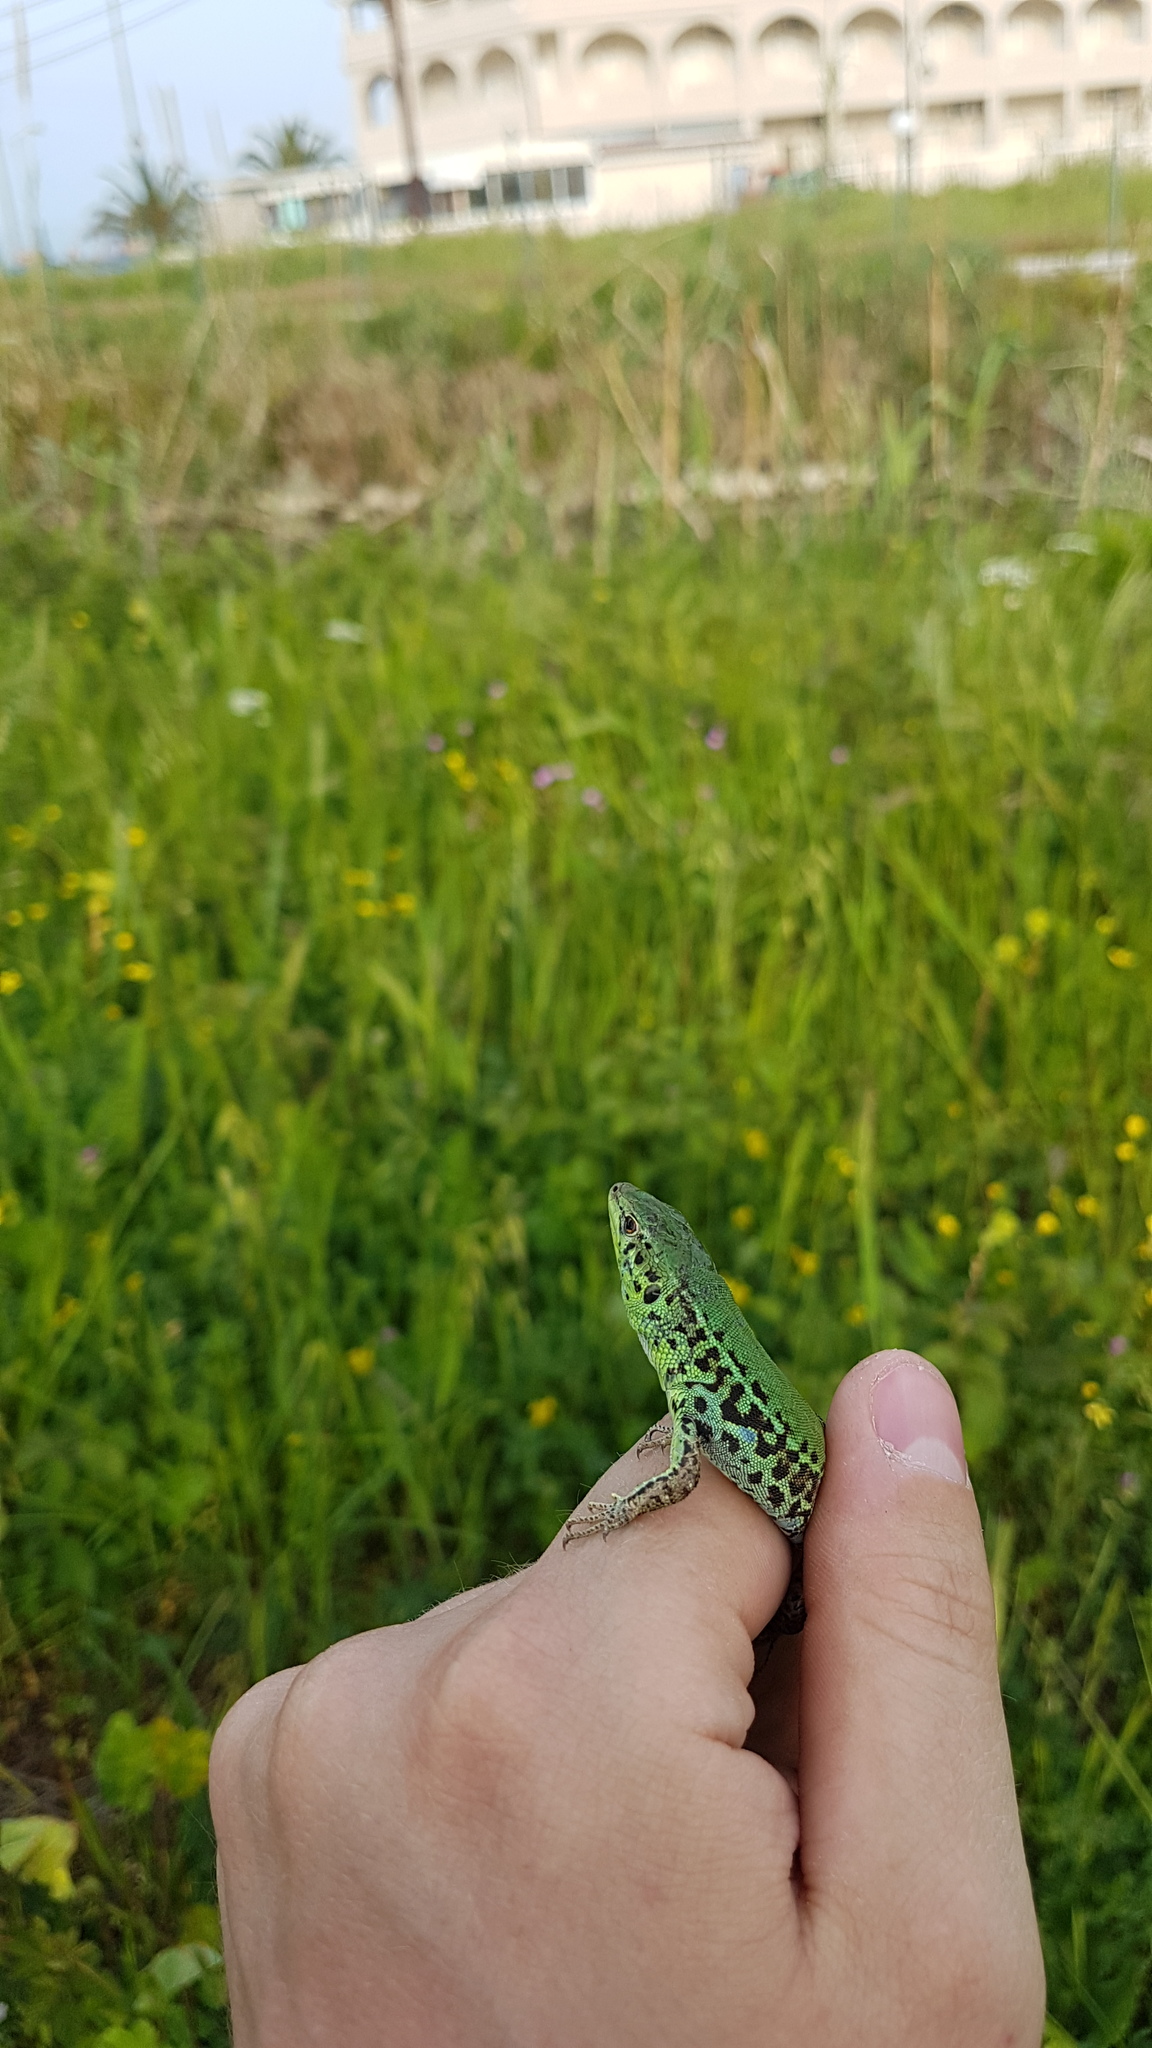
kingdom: Animalia
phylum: Chordata
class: Squamata
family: Lacertidae
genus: Podarcis
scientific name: Podarcis ionicus
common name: Ionian wall lizard
